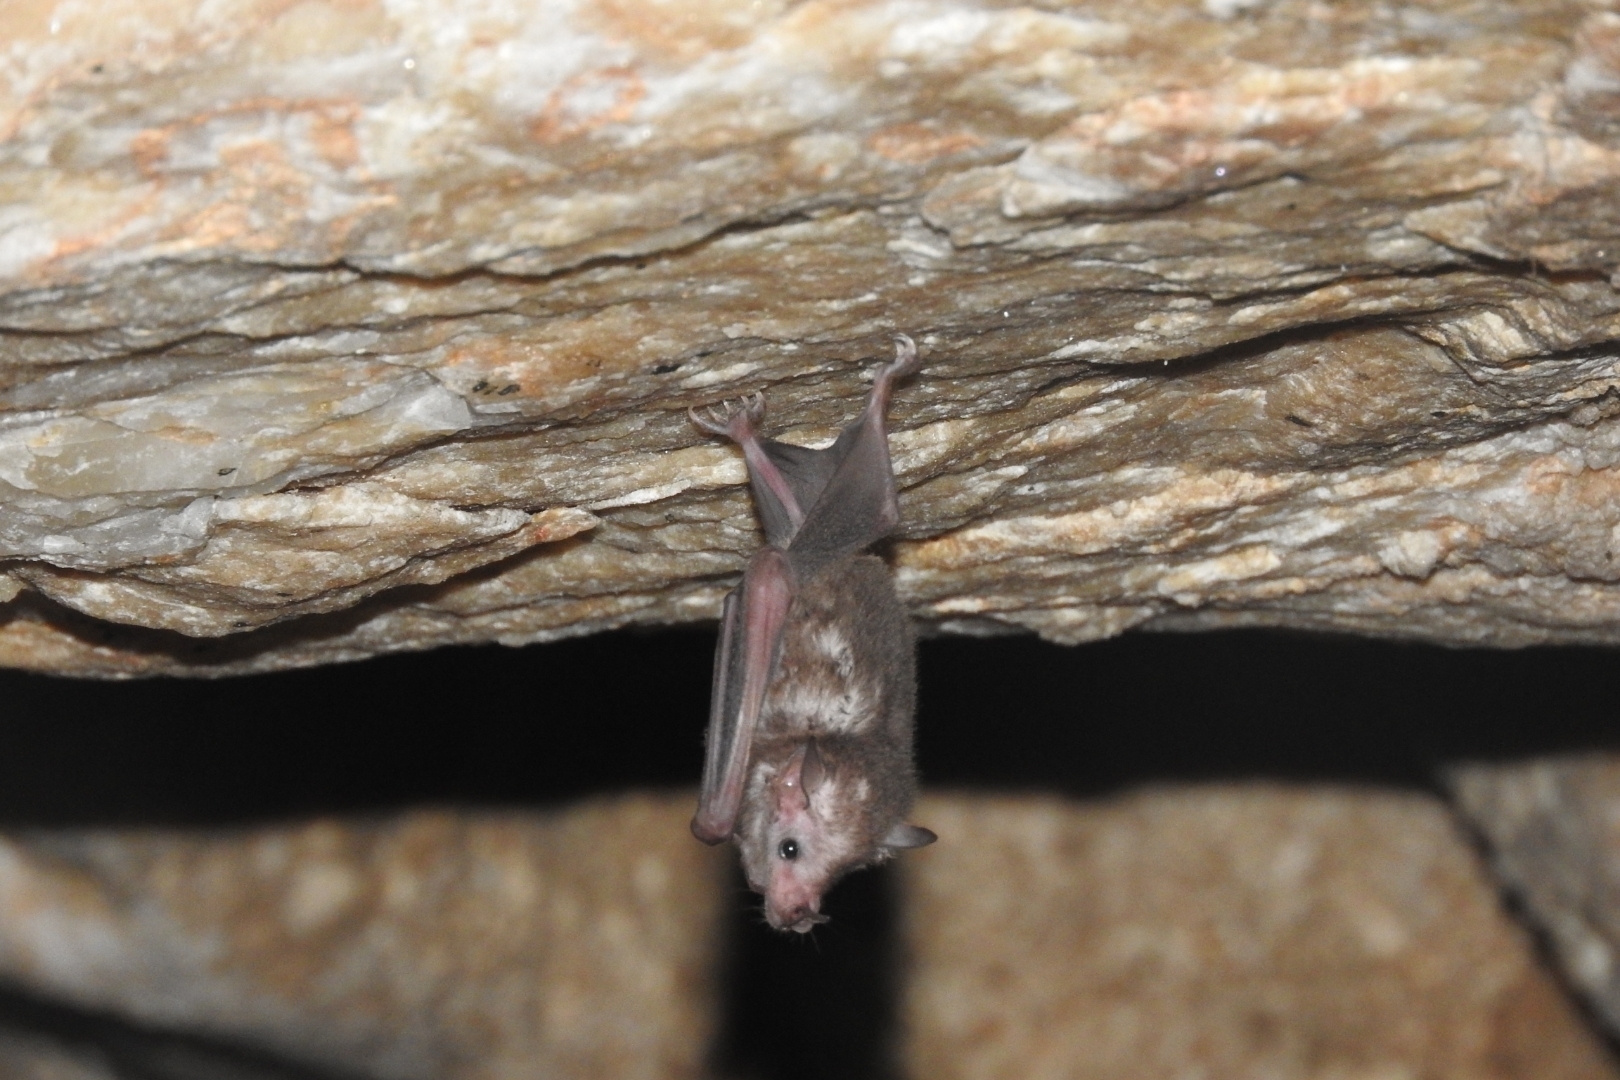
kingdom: Animalia
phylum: Chordata
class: Mammalia
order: Chiroptera
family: Phyllostomidae
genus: Glossophaga
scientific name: Glossophaga soricina
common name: Pallas's long-tongued bat
